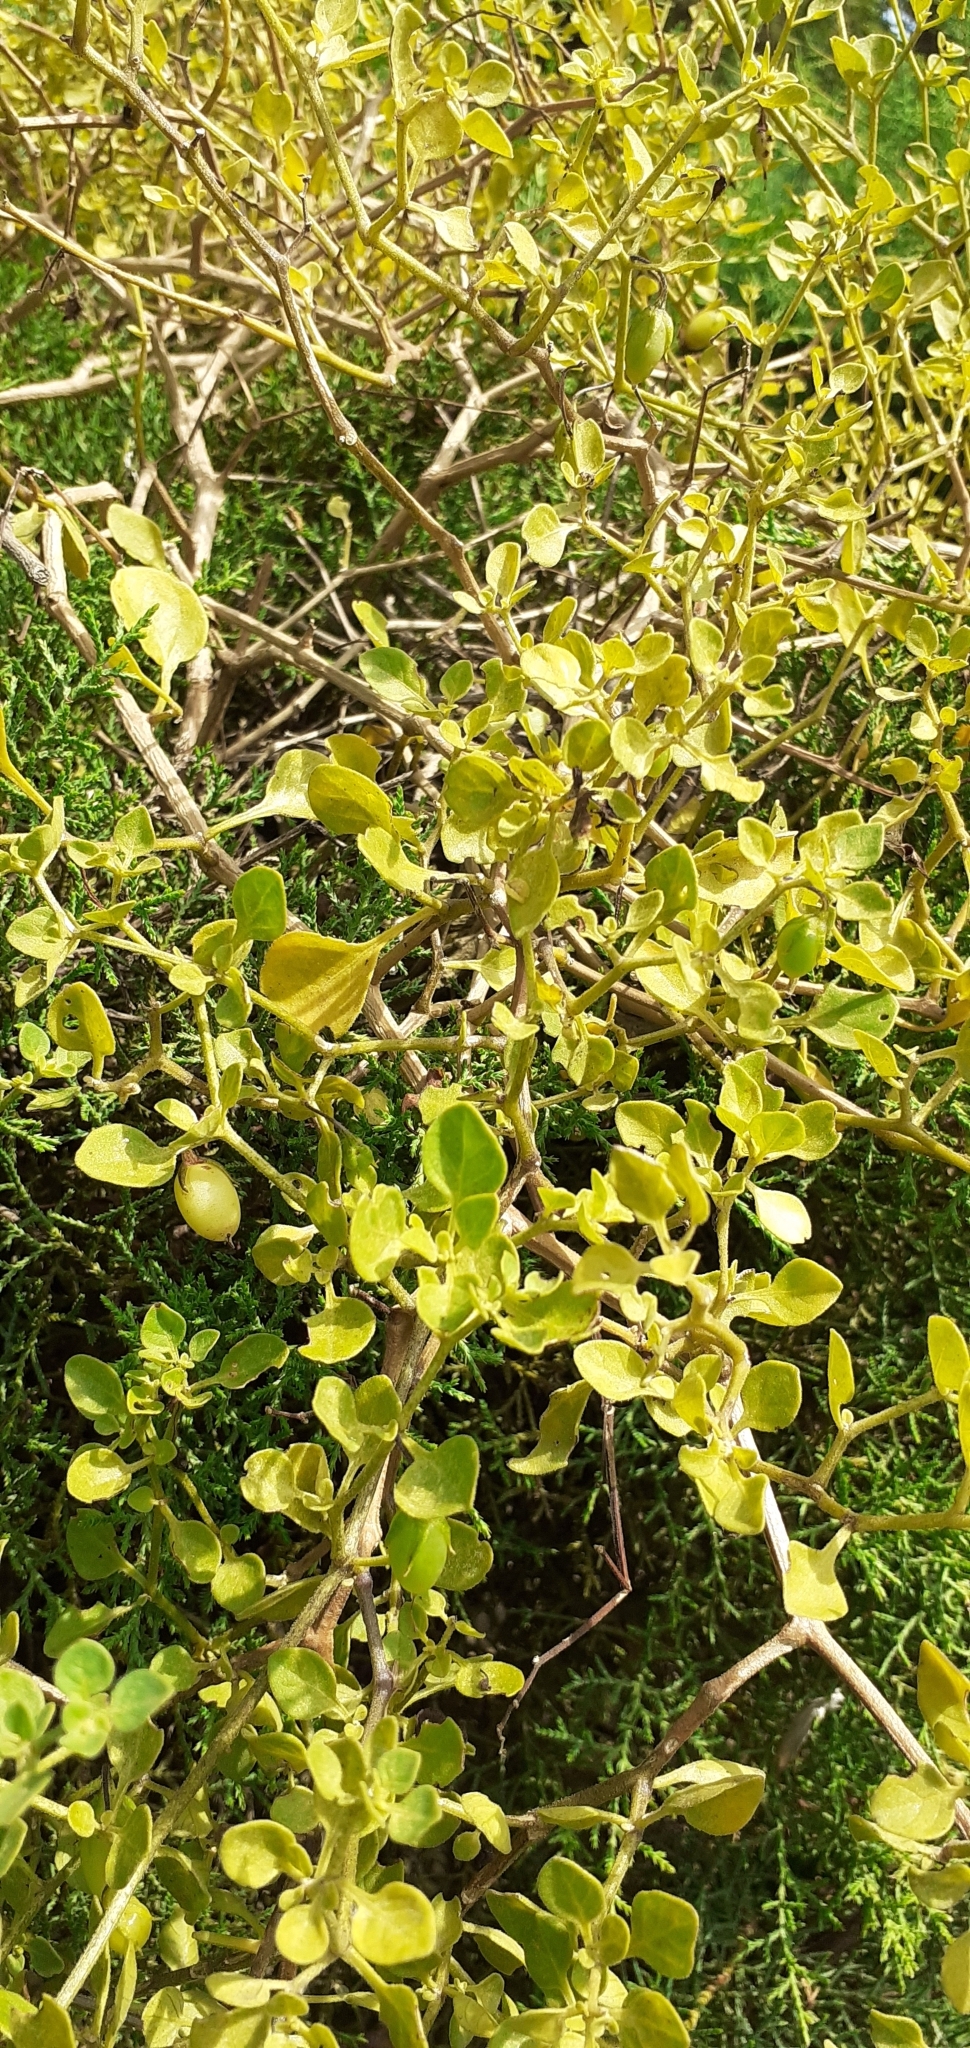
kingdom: Plantae
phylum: Tracheophyta
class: Magnoliopsida
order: Solanales
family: Solanaceae
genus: Salpichroa
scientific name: Salpichroa origanifolia
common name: Lily-of-the-valley-vine
